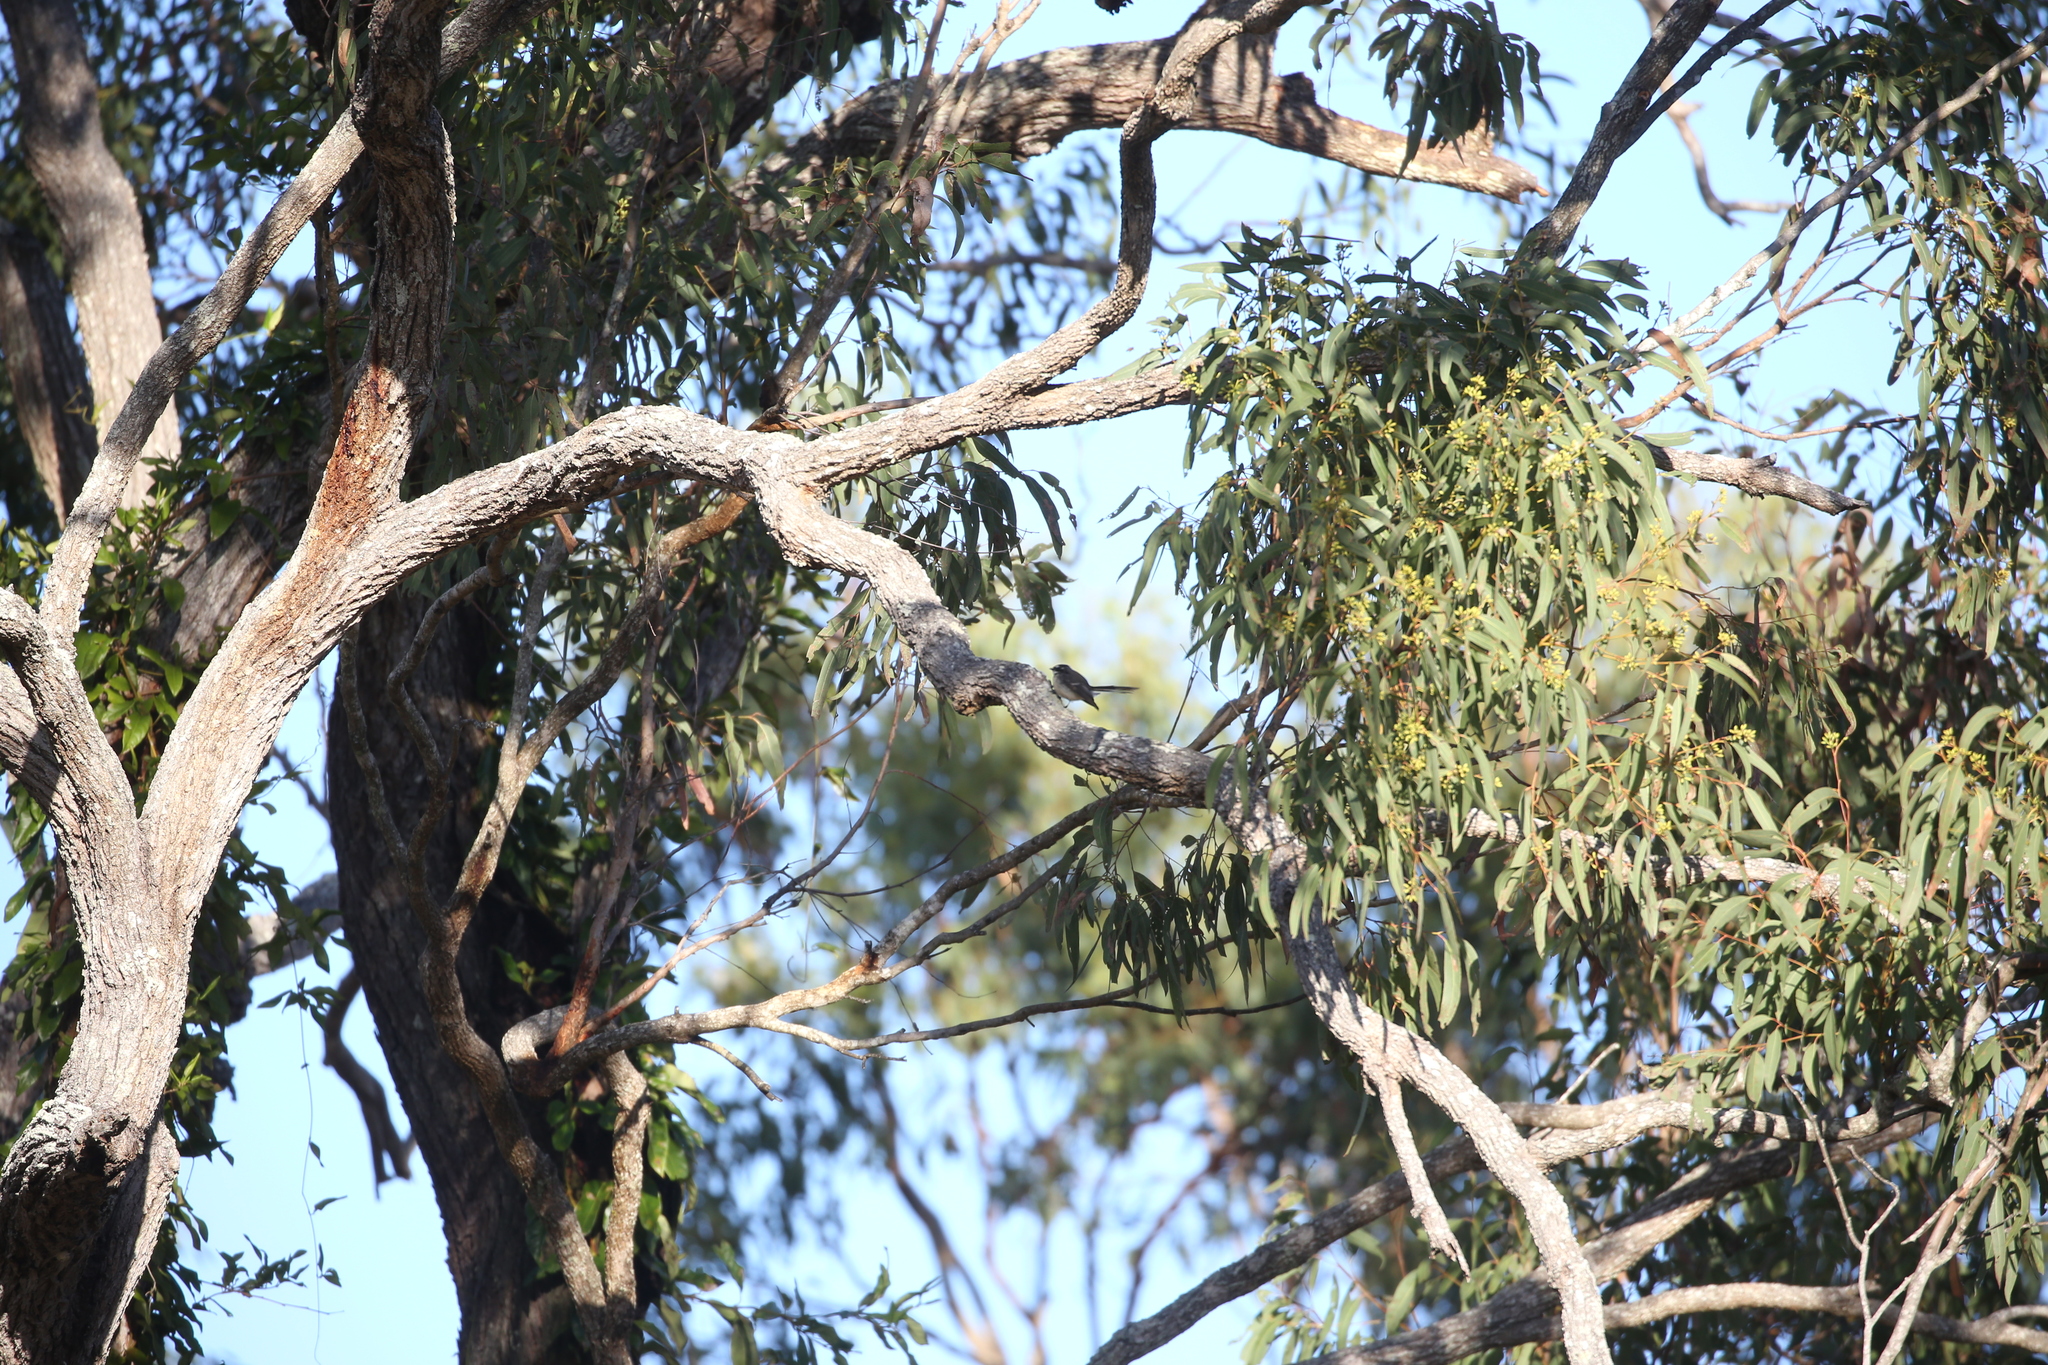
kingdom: Animalia
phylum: Chordata
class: Aves
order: Passeriformes
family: Rhipiduridae
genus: Rhipidura
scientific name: Rhipidura albiscapa
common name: Grey fantail
